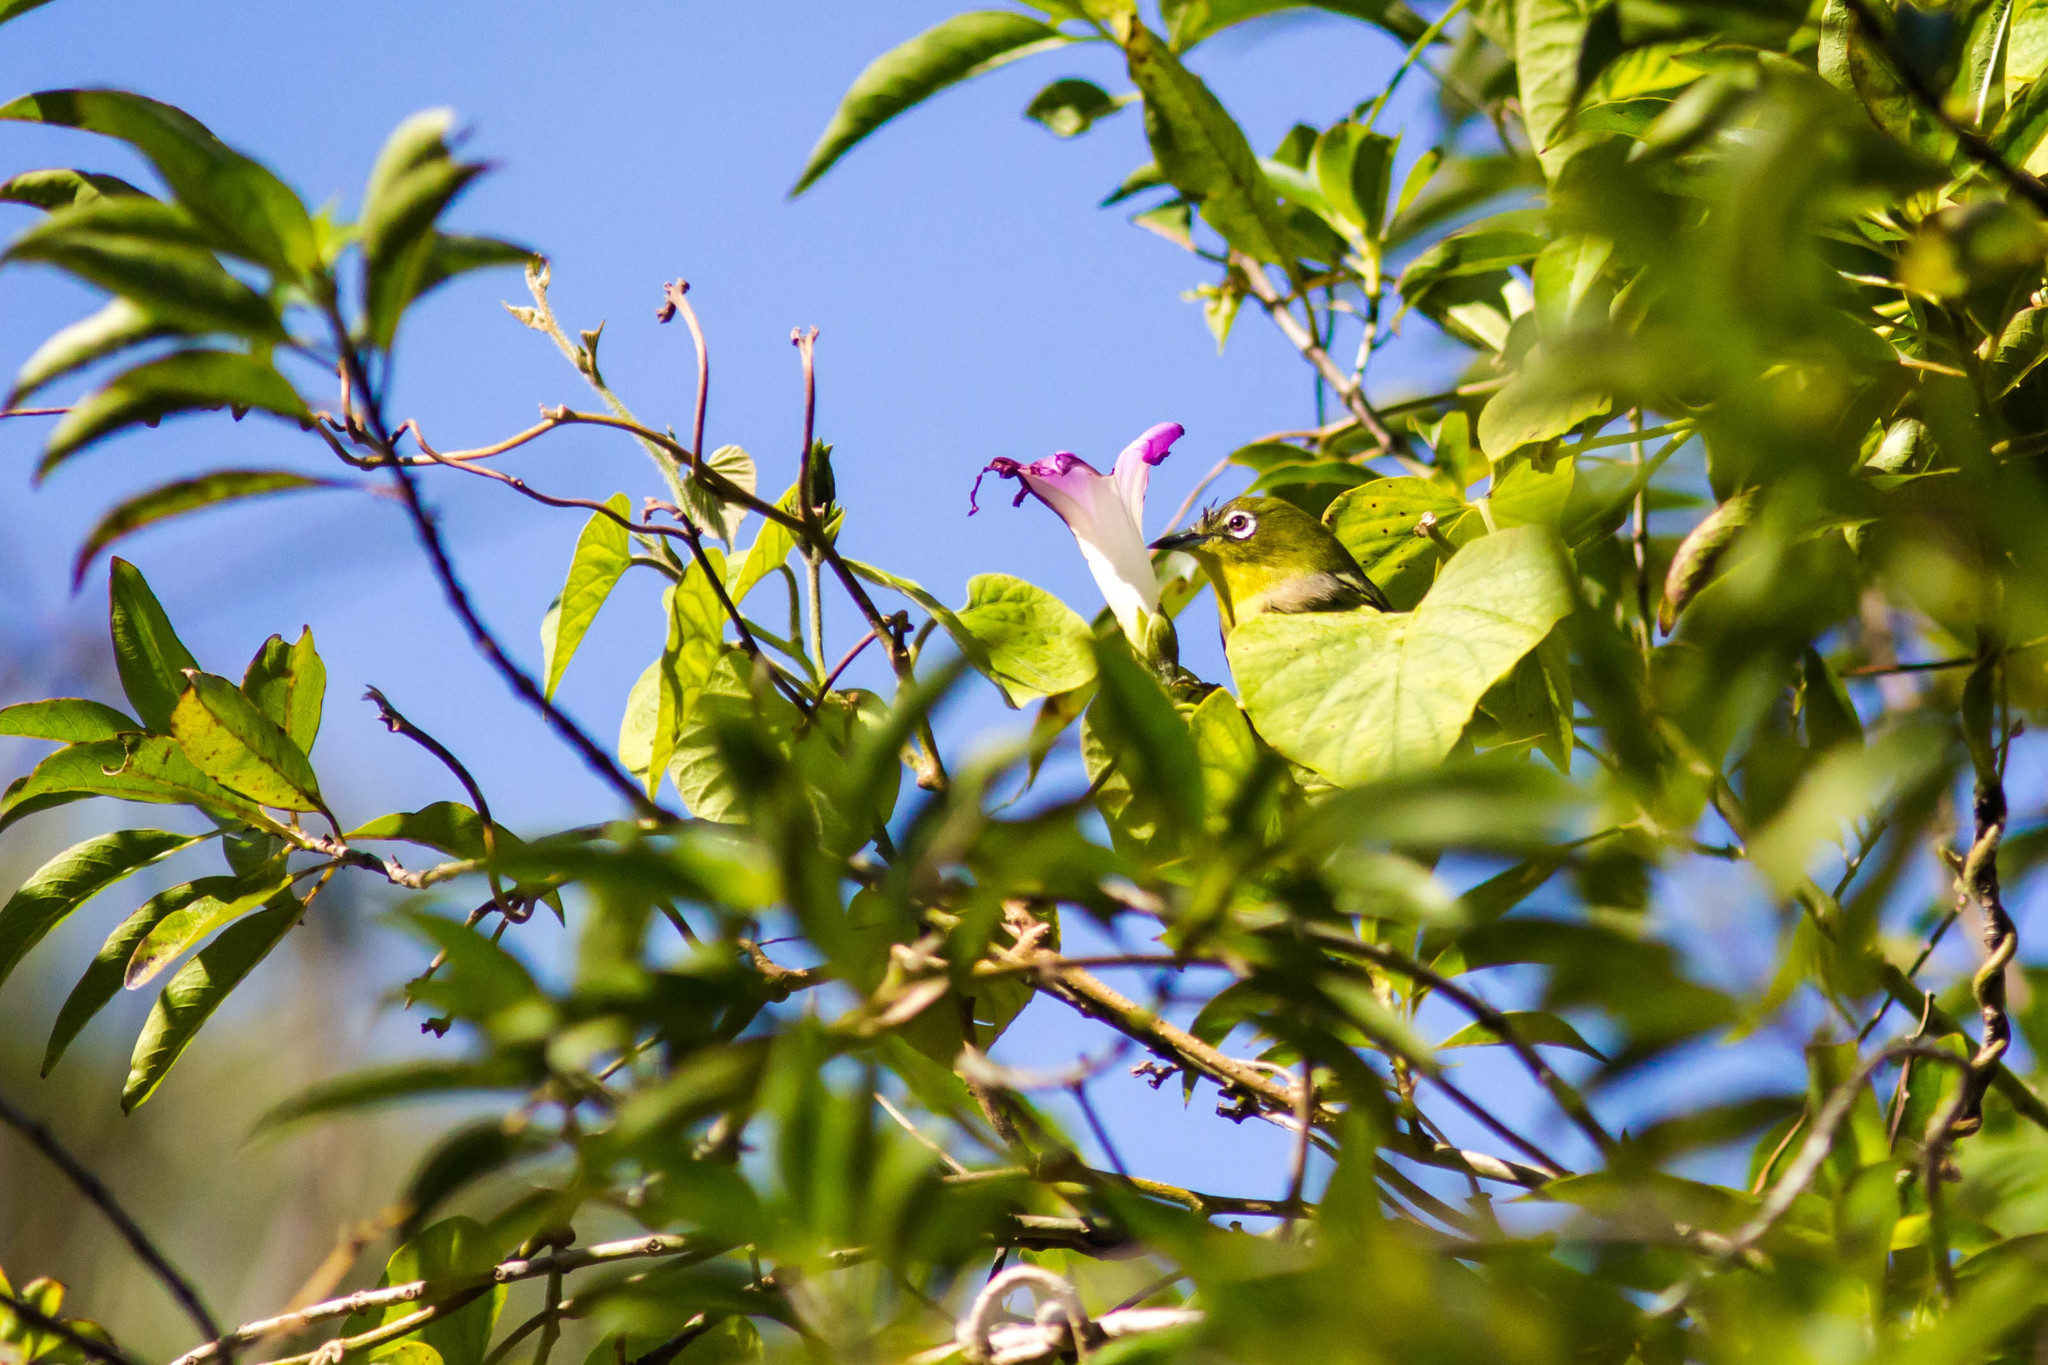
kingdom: Animalia
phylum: Chordata
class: Aves
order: Passeriformes
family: Zosteropidae
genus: Zosterops
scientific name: Zosterops japonicus
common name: Japanese white-eye
